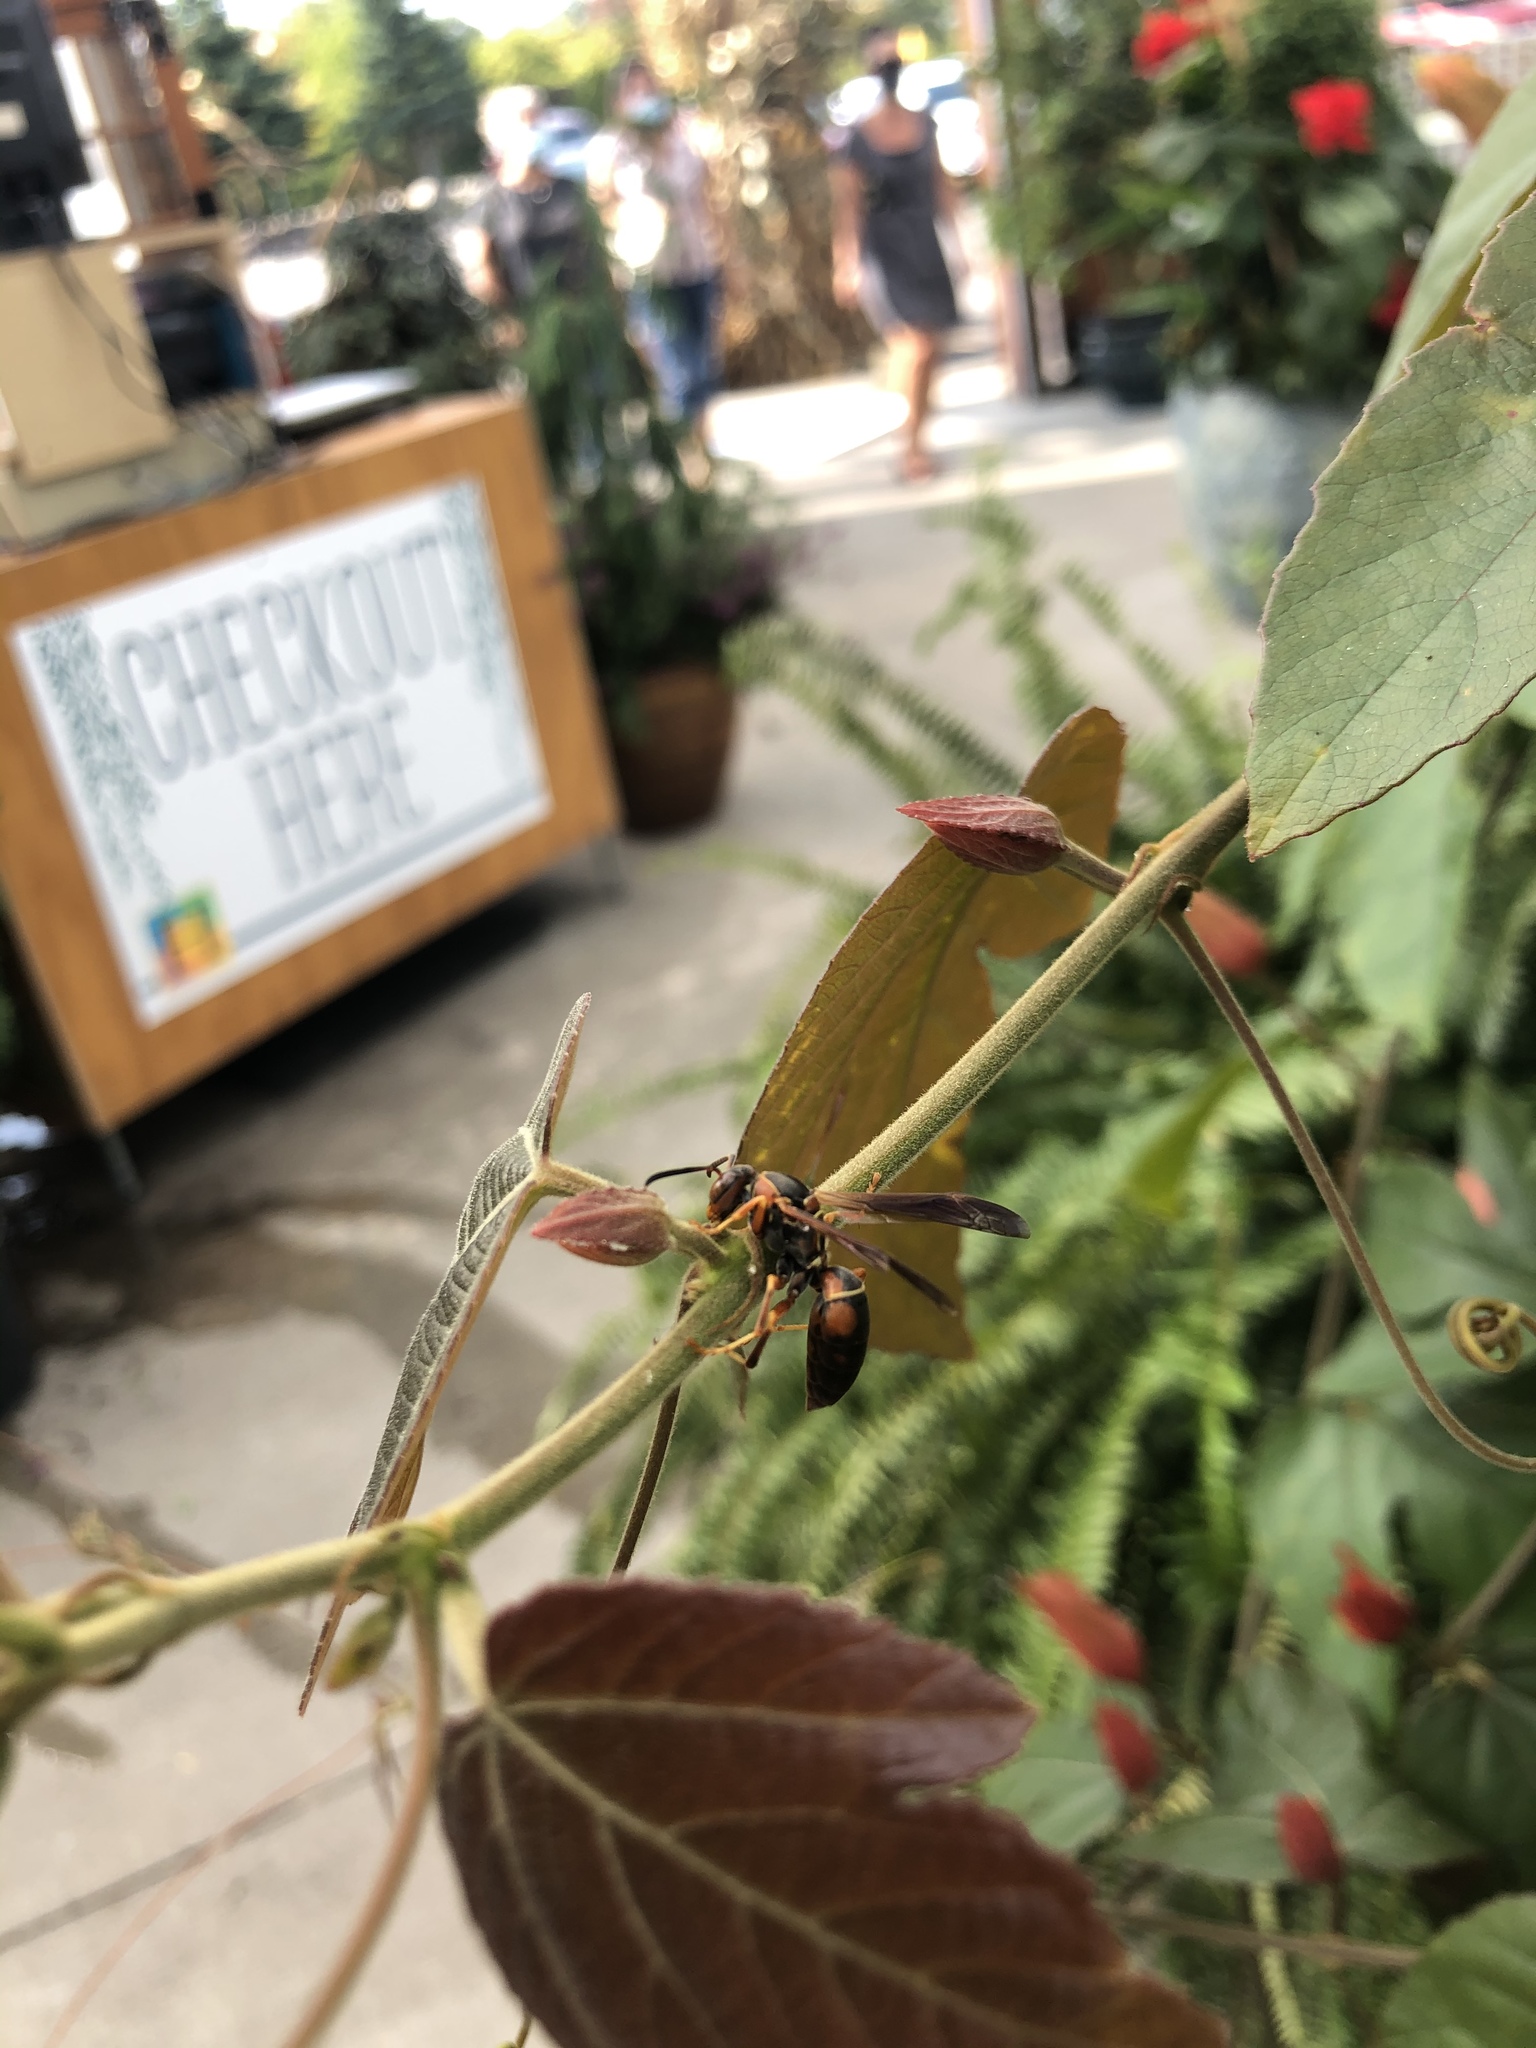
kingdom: Animalia
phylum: Arthropoda
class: Insecta
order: Hymenoptera
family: Eumenidae
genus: Polistes
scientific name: Polistes fuscatus
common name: Dark paper wasp
